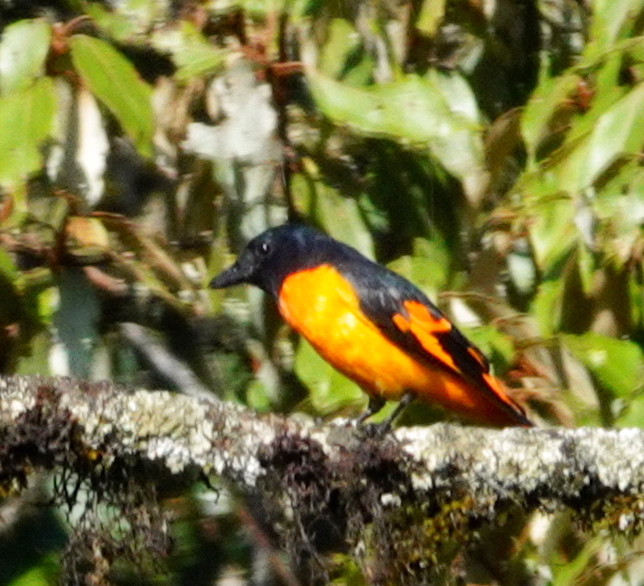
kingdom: Animalia
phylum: Chordata
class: Aves
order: Passeriformes
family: Campephagidae
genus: Pericrocotus
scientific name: Pericrocotus flammeus
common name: Orange minivet
